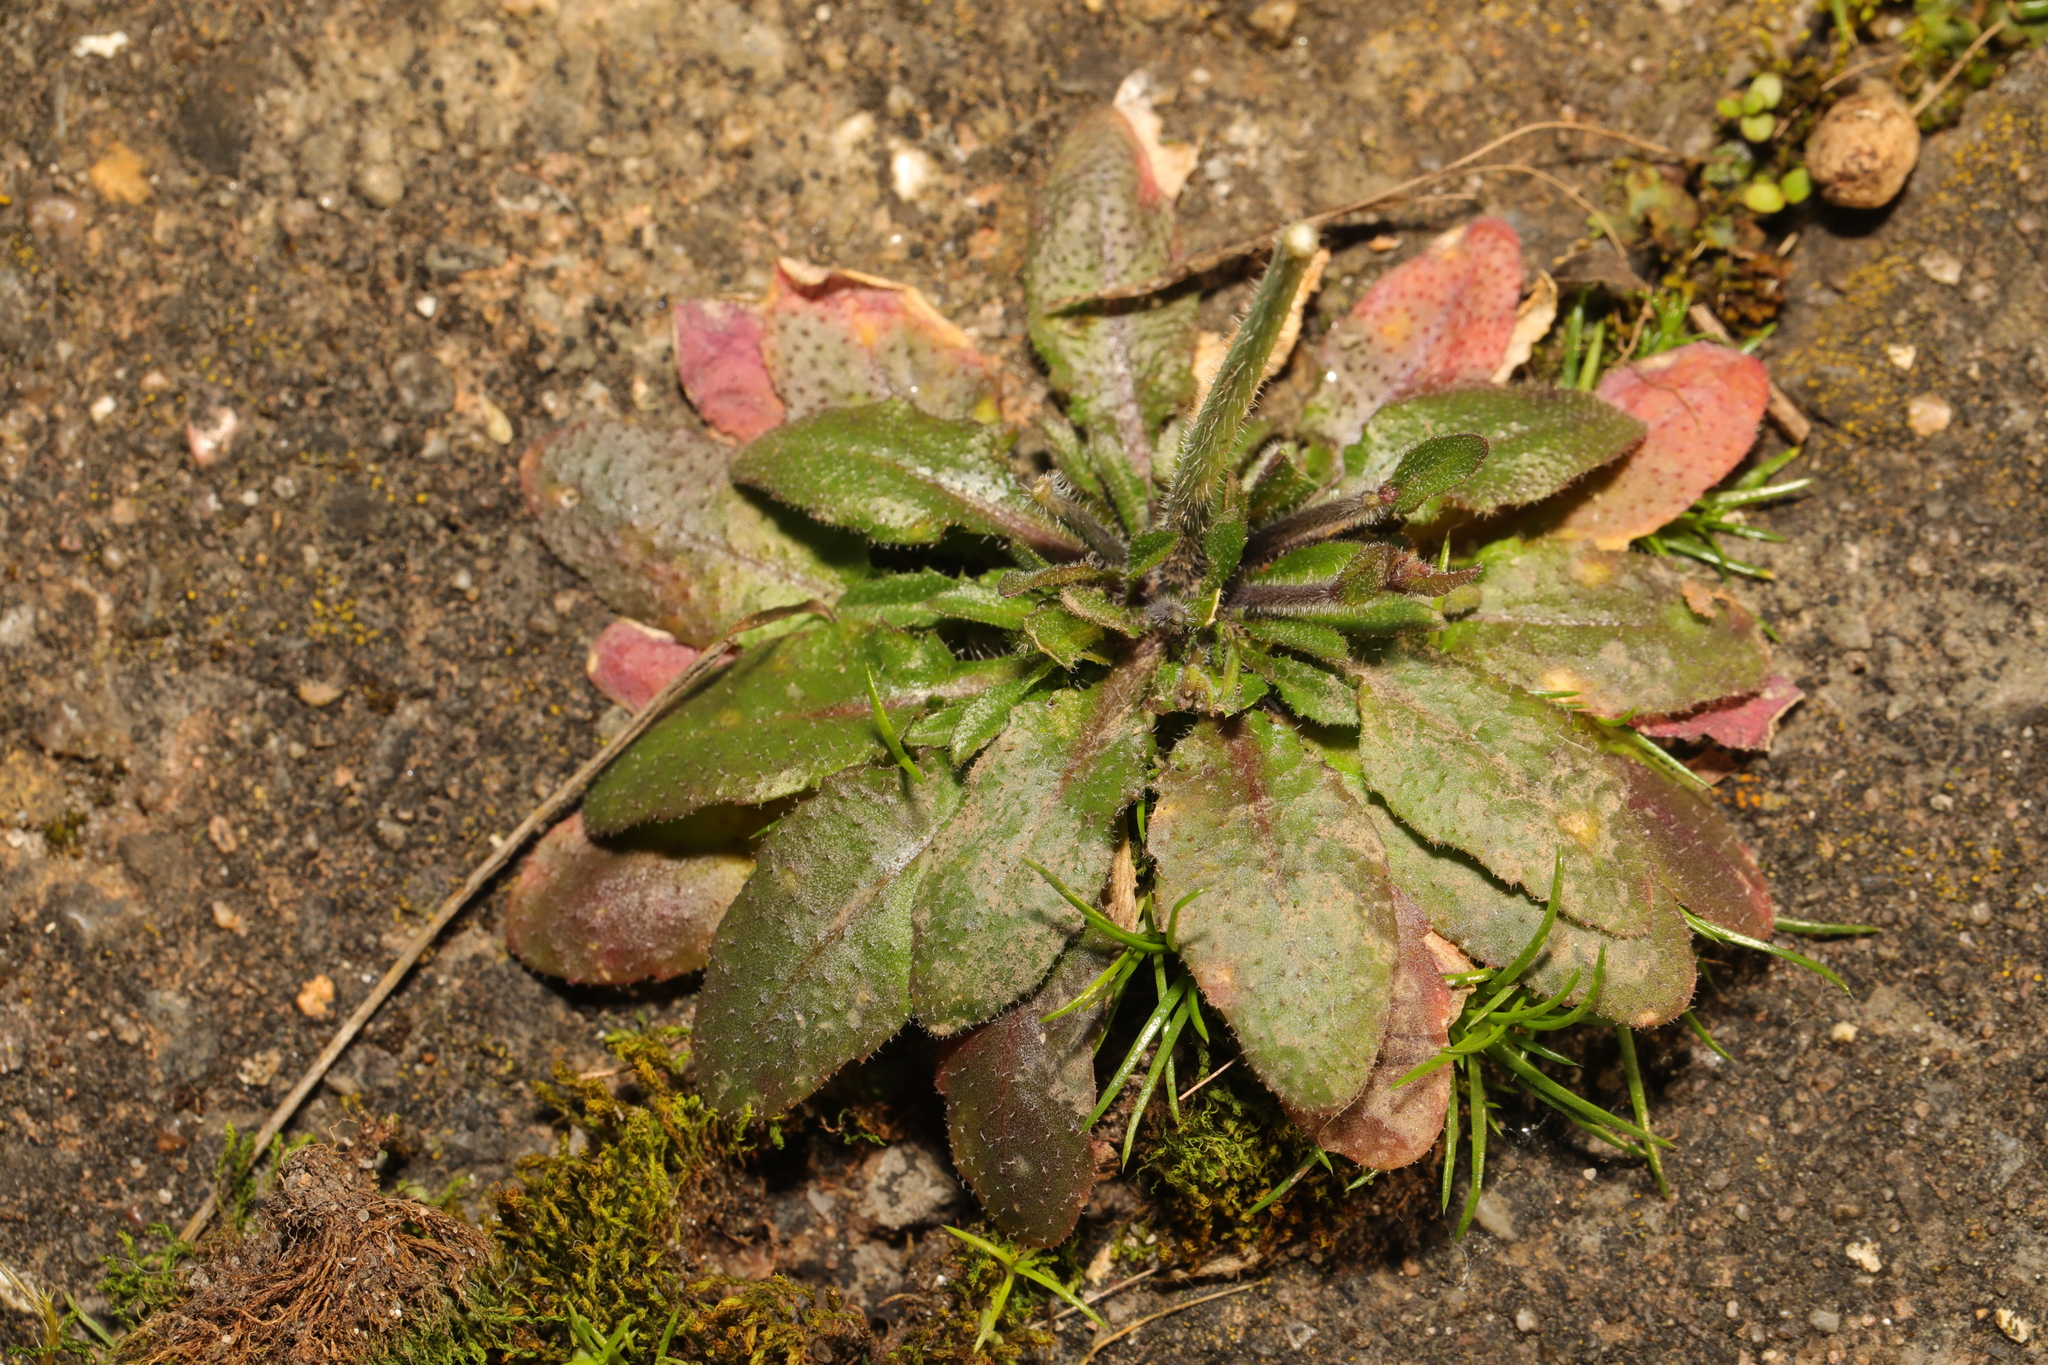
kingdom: Plantae
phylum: Tracheophyta
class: Magnoliopsida
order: Brassicales
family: Brassicaceae
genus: Arabidopsis
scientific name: Arabidopsis thaliana
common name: Thale cress
